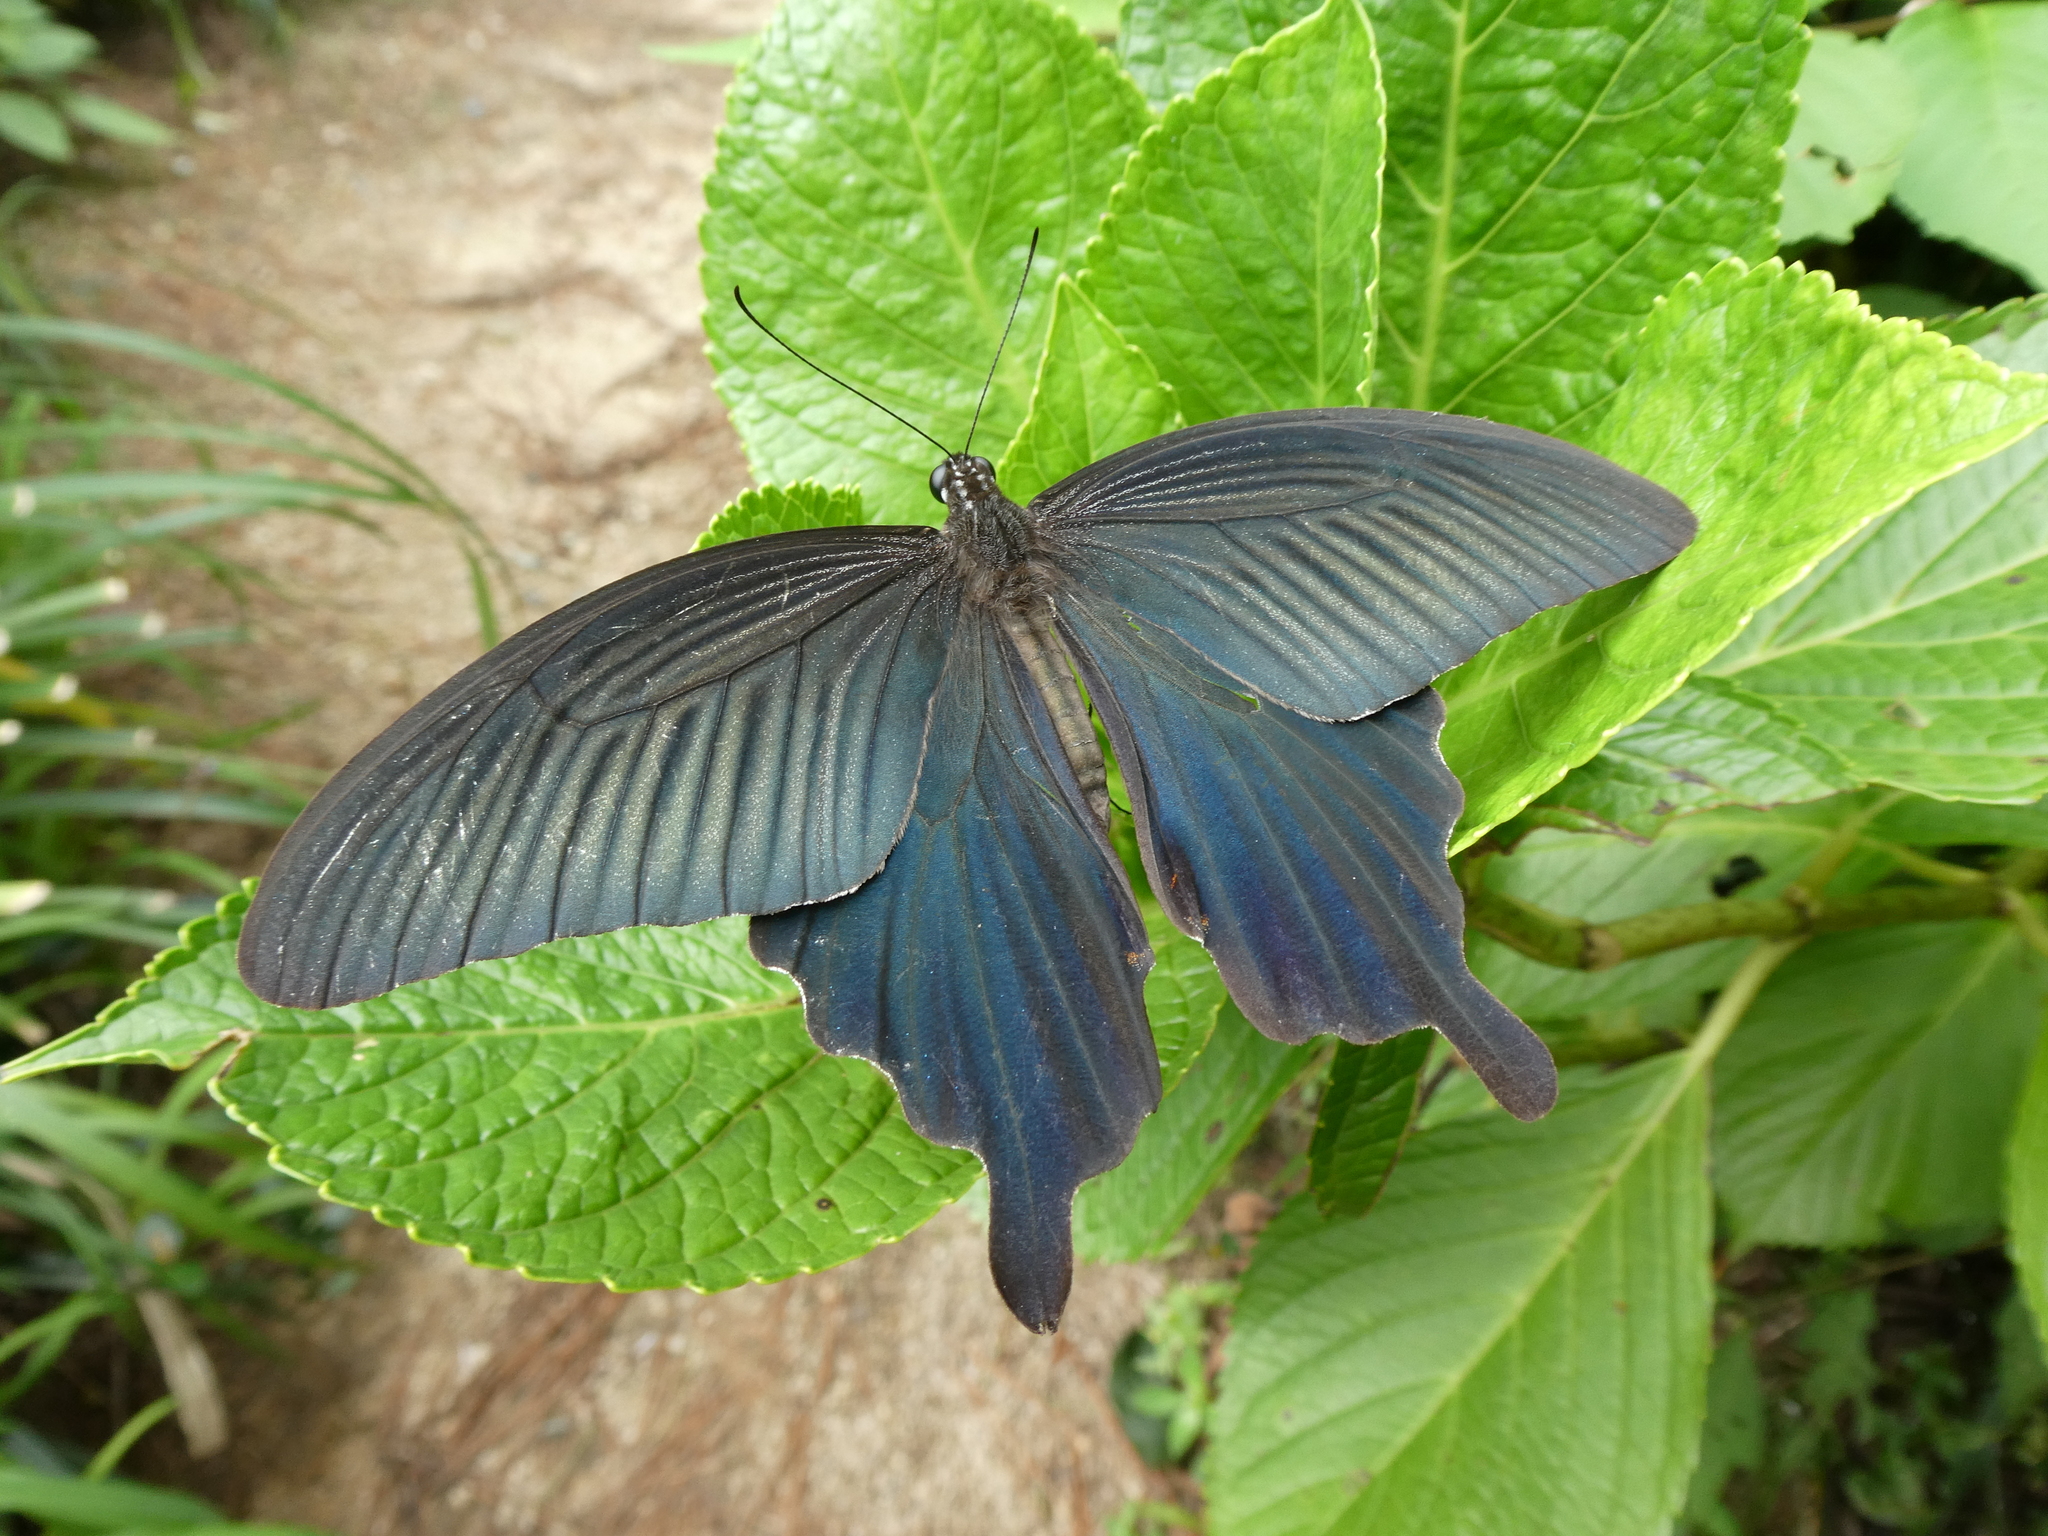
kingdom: Animalia
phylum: Arthropoda
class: Insecta
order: Lepidoptera
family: Papilionidae
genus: Papilio
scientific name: Papilio protenor
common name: Spangle
